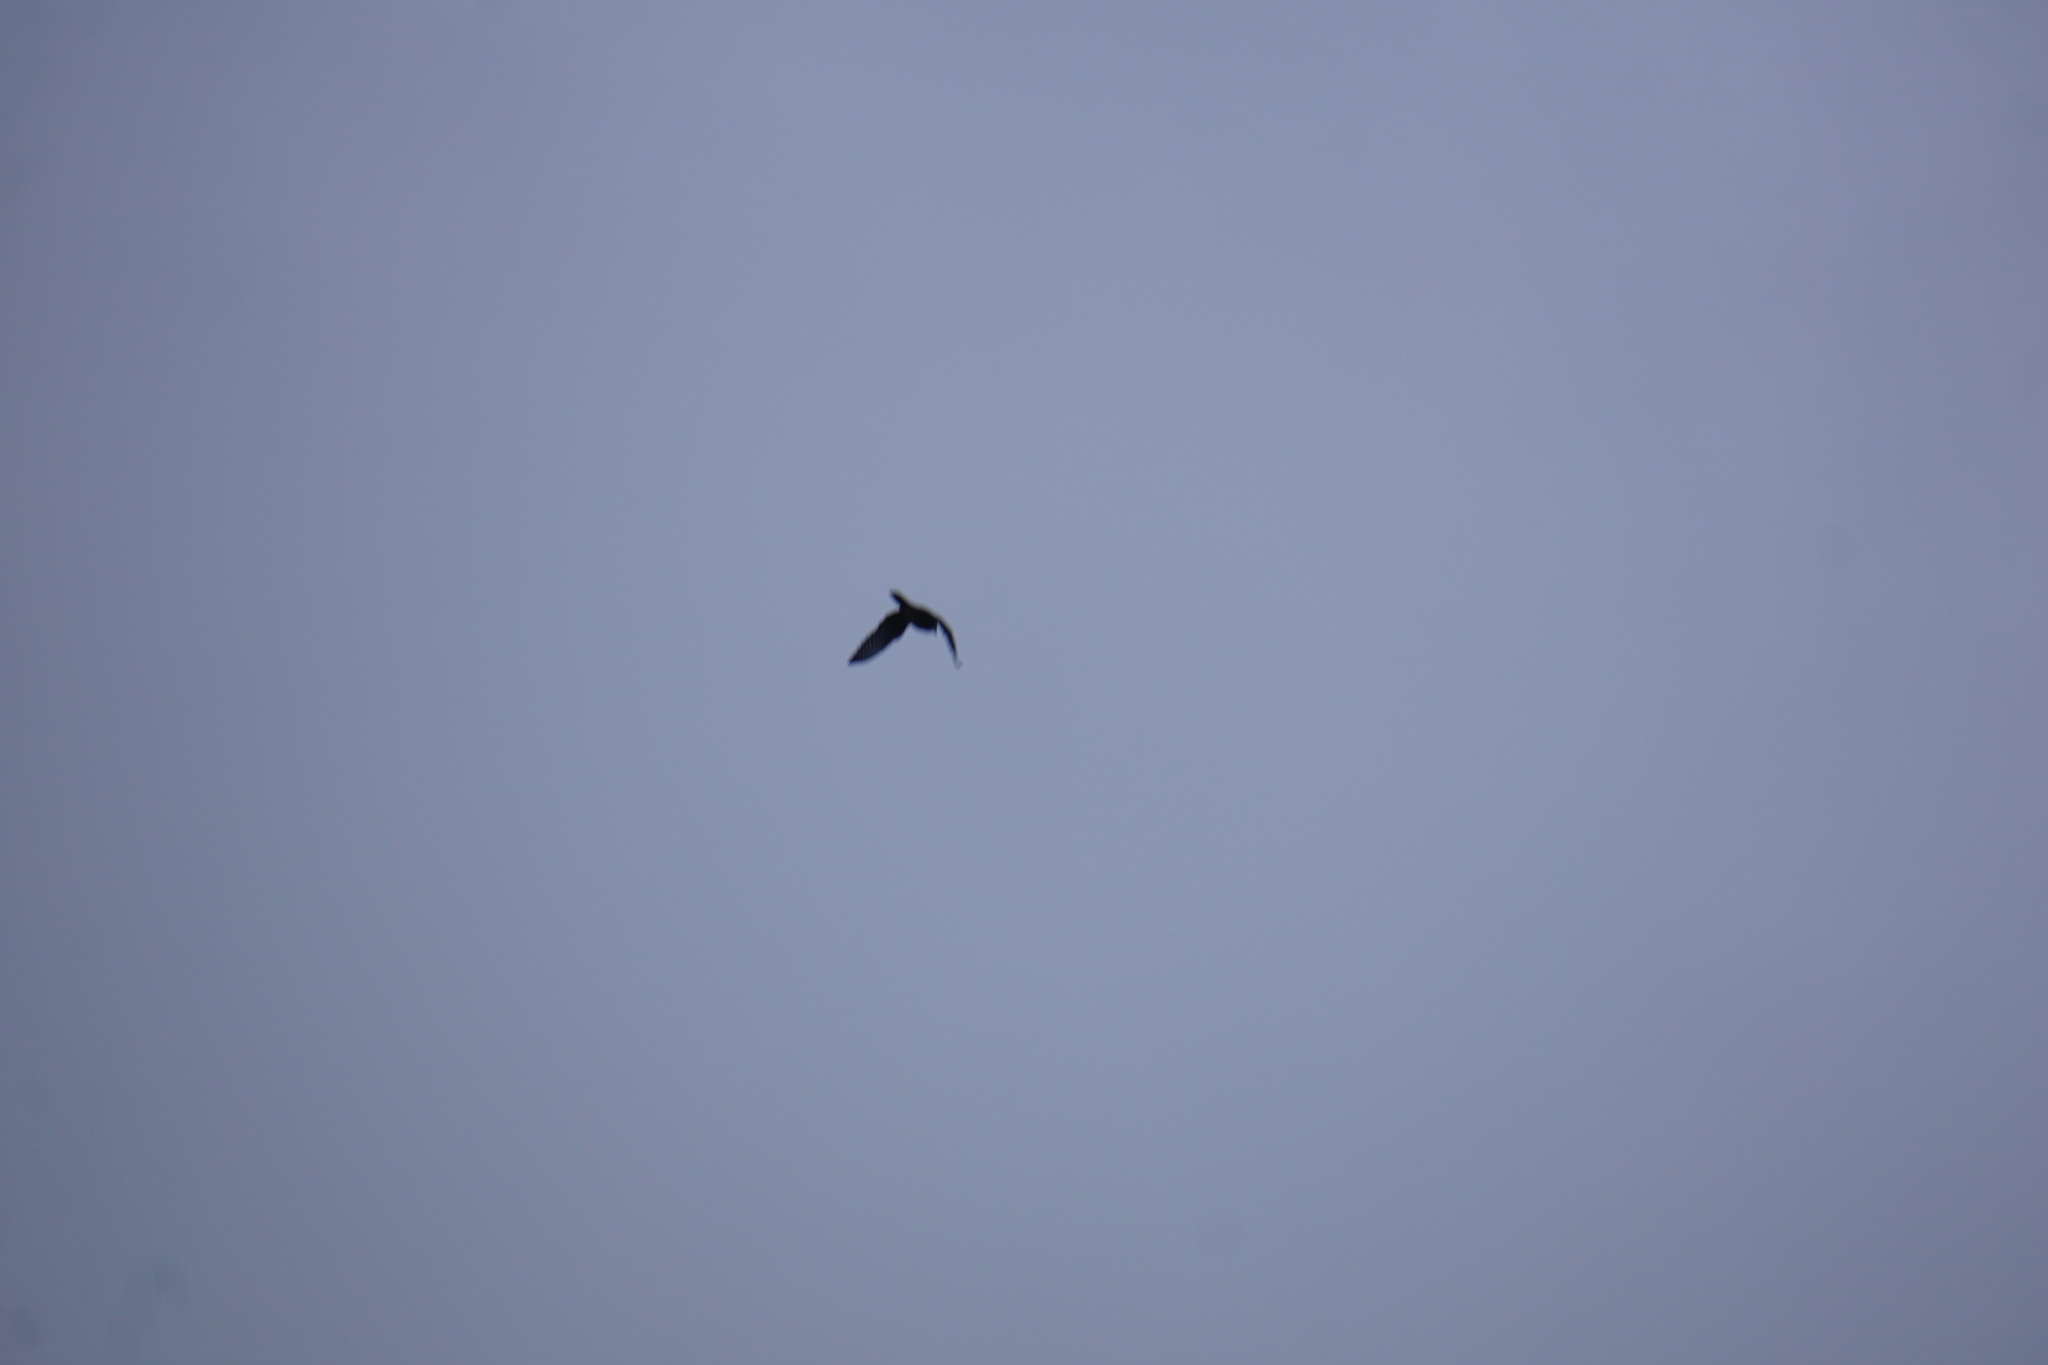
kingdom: Animalia
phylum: Chordata
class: Aves
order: Falconiformes
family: Falconidae
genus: Falco
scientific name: Falco novaeseelandiae
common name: New zealand falcon
